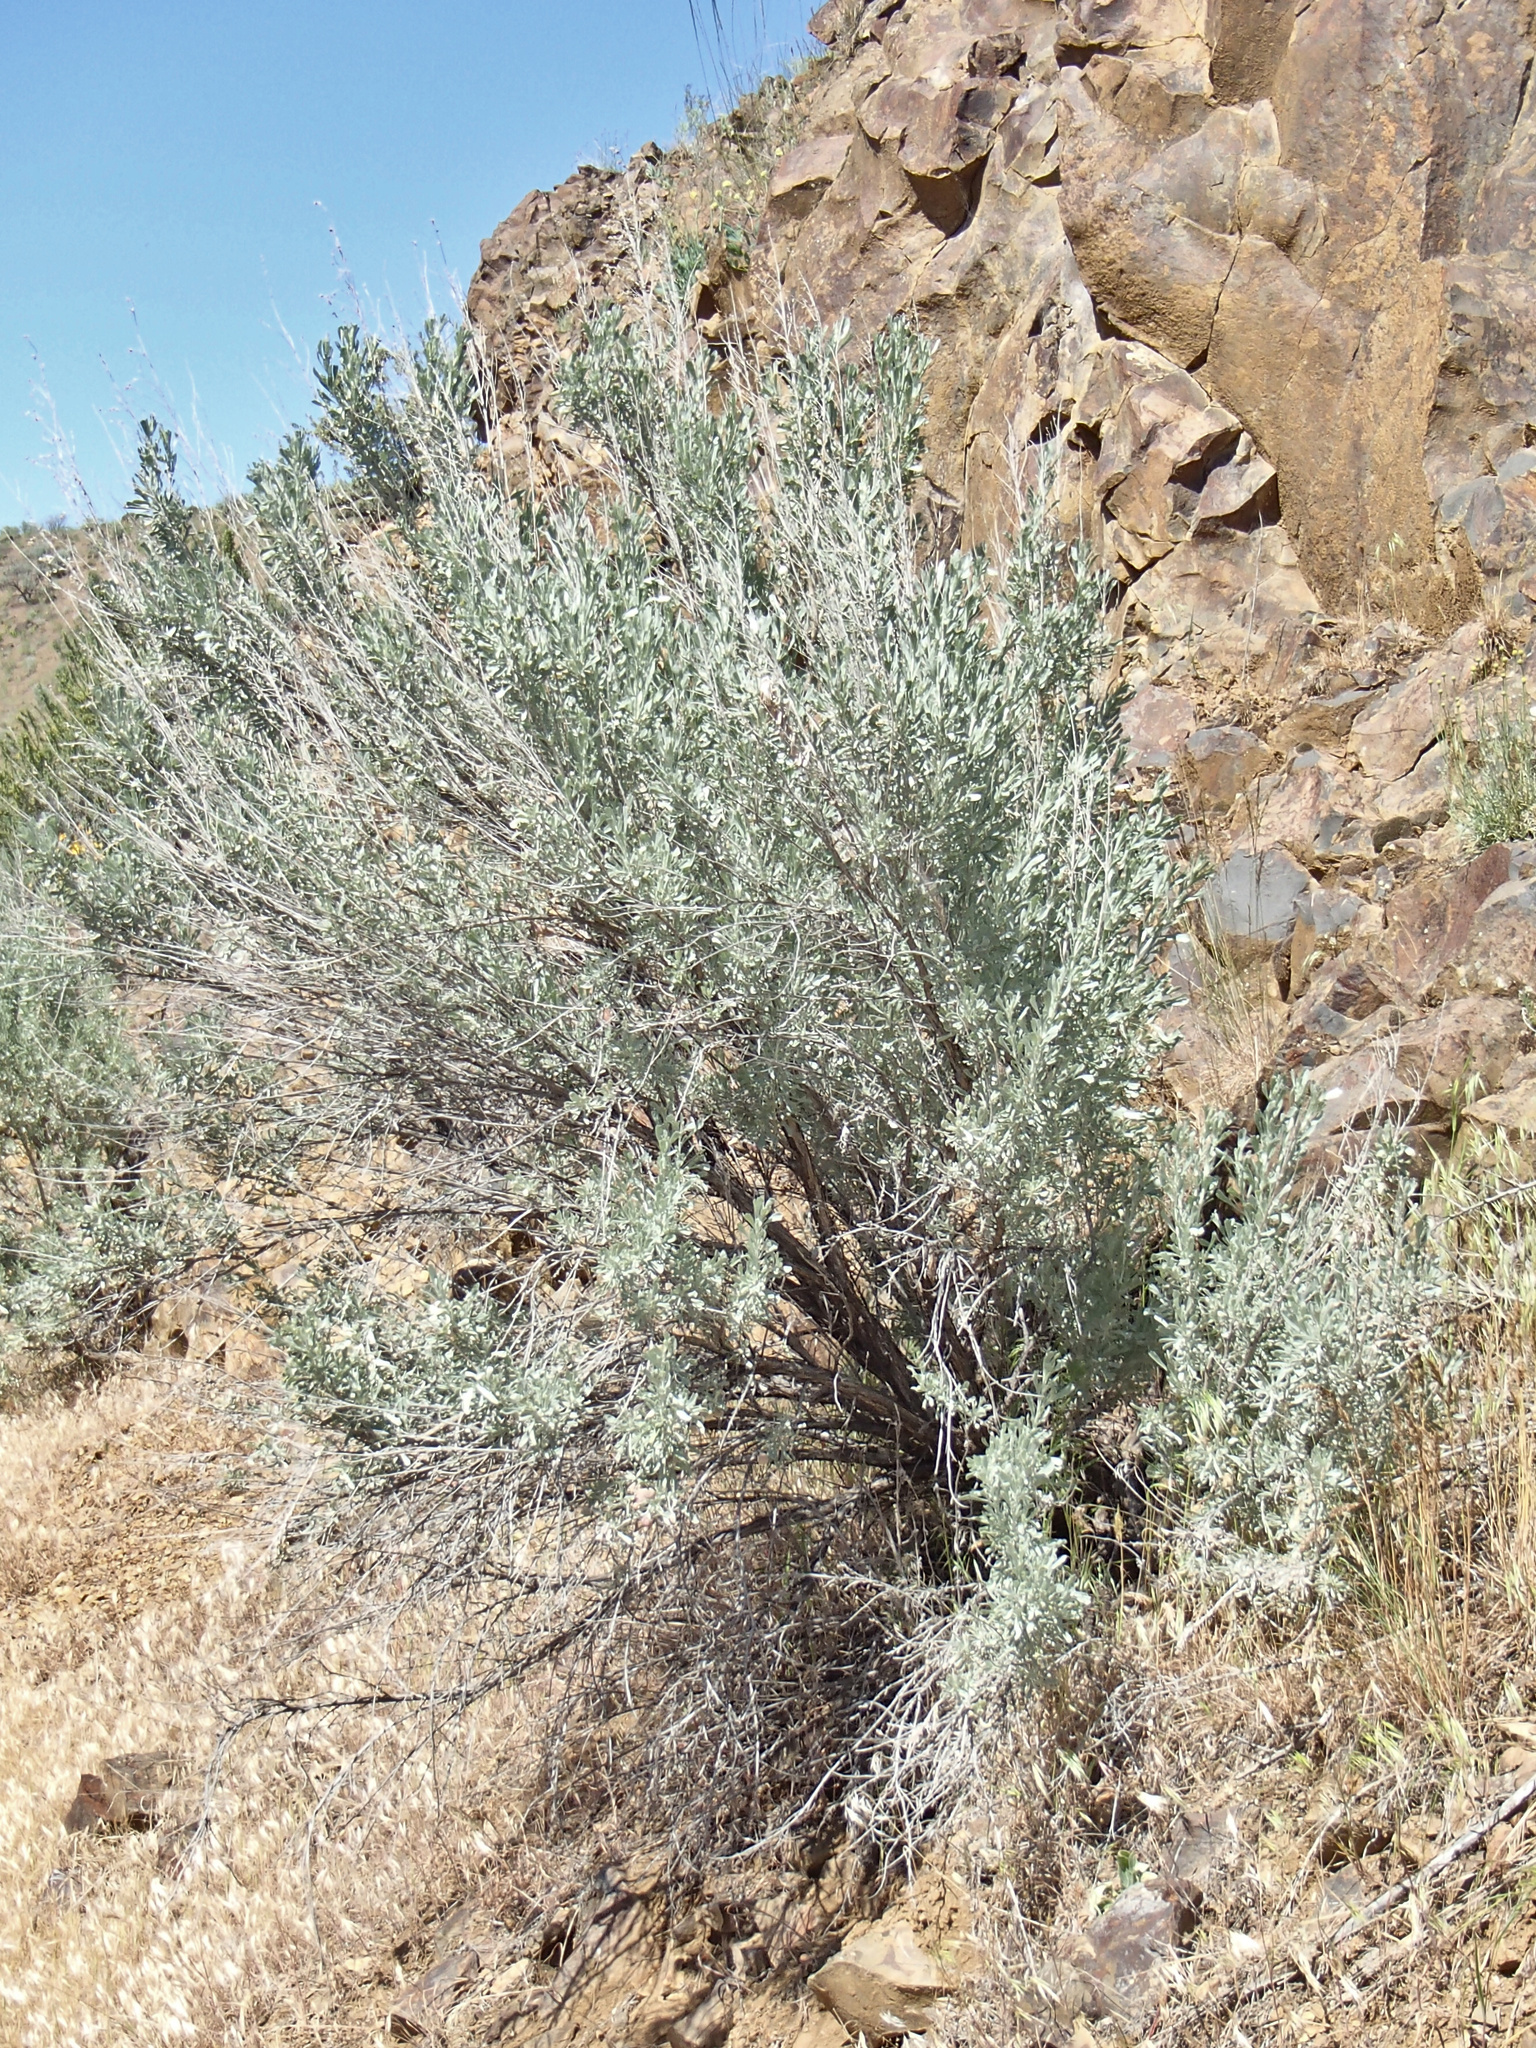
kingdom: Plantae
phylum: Tracheophyta
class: Magnoliopsida
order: Asterales
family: Asteraceae
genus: Artemisia
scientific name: Artemisia tridentata
